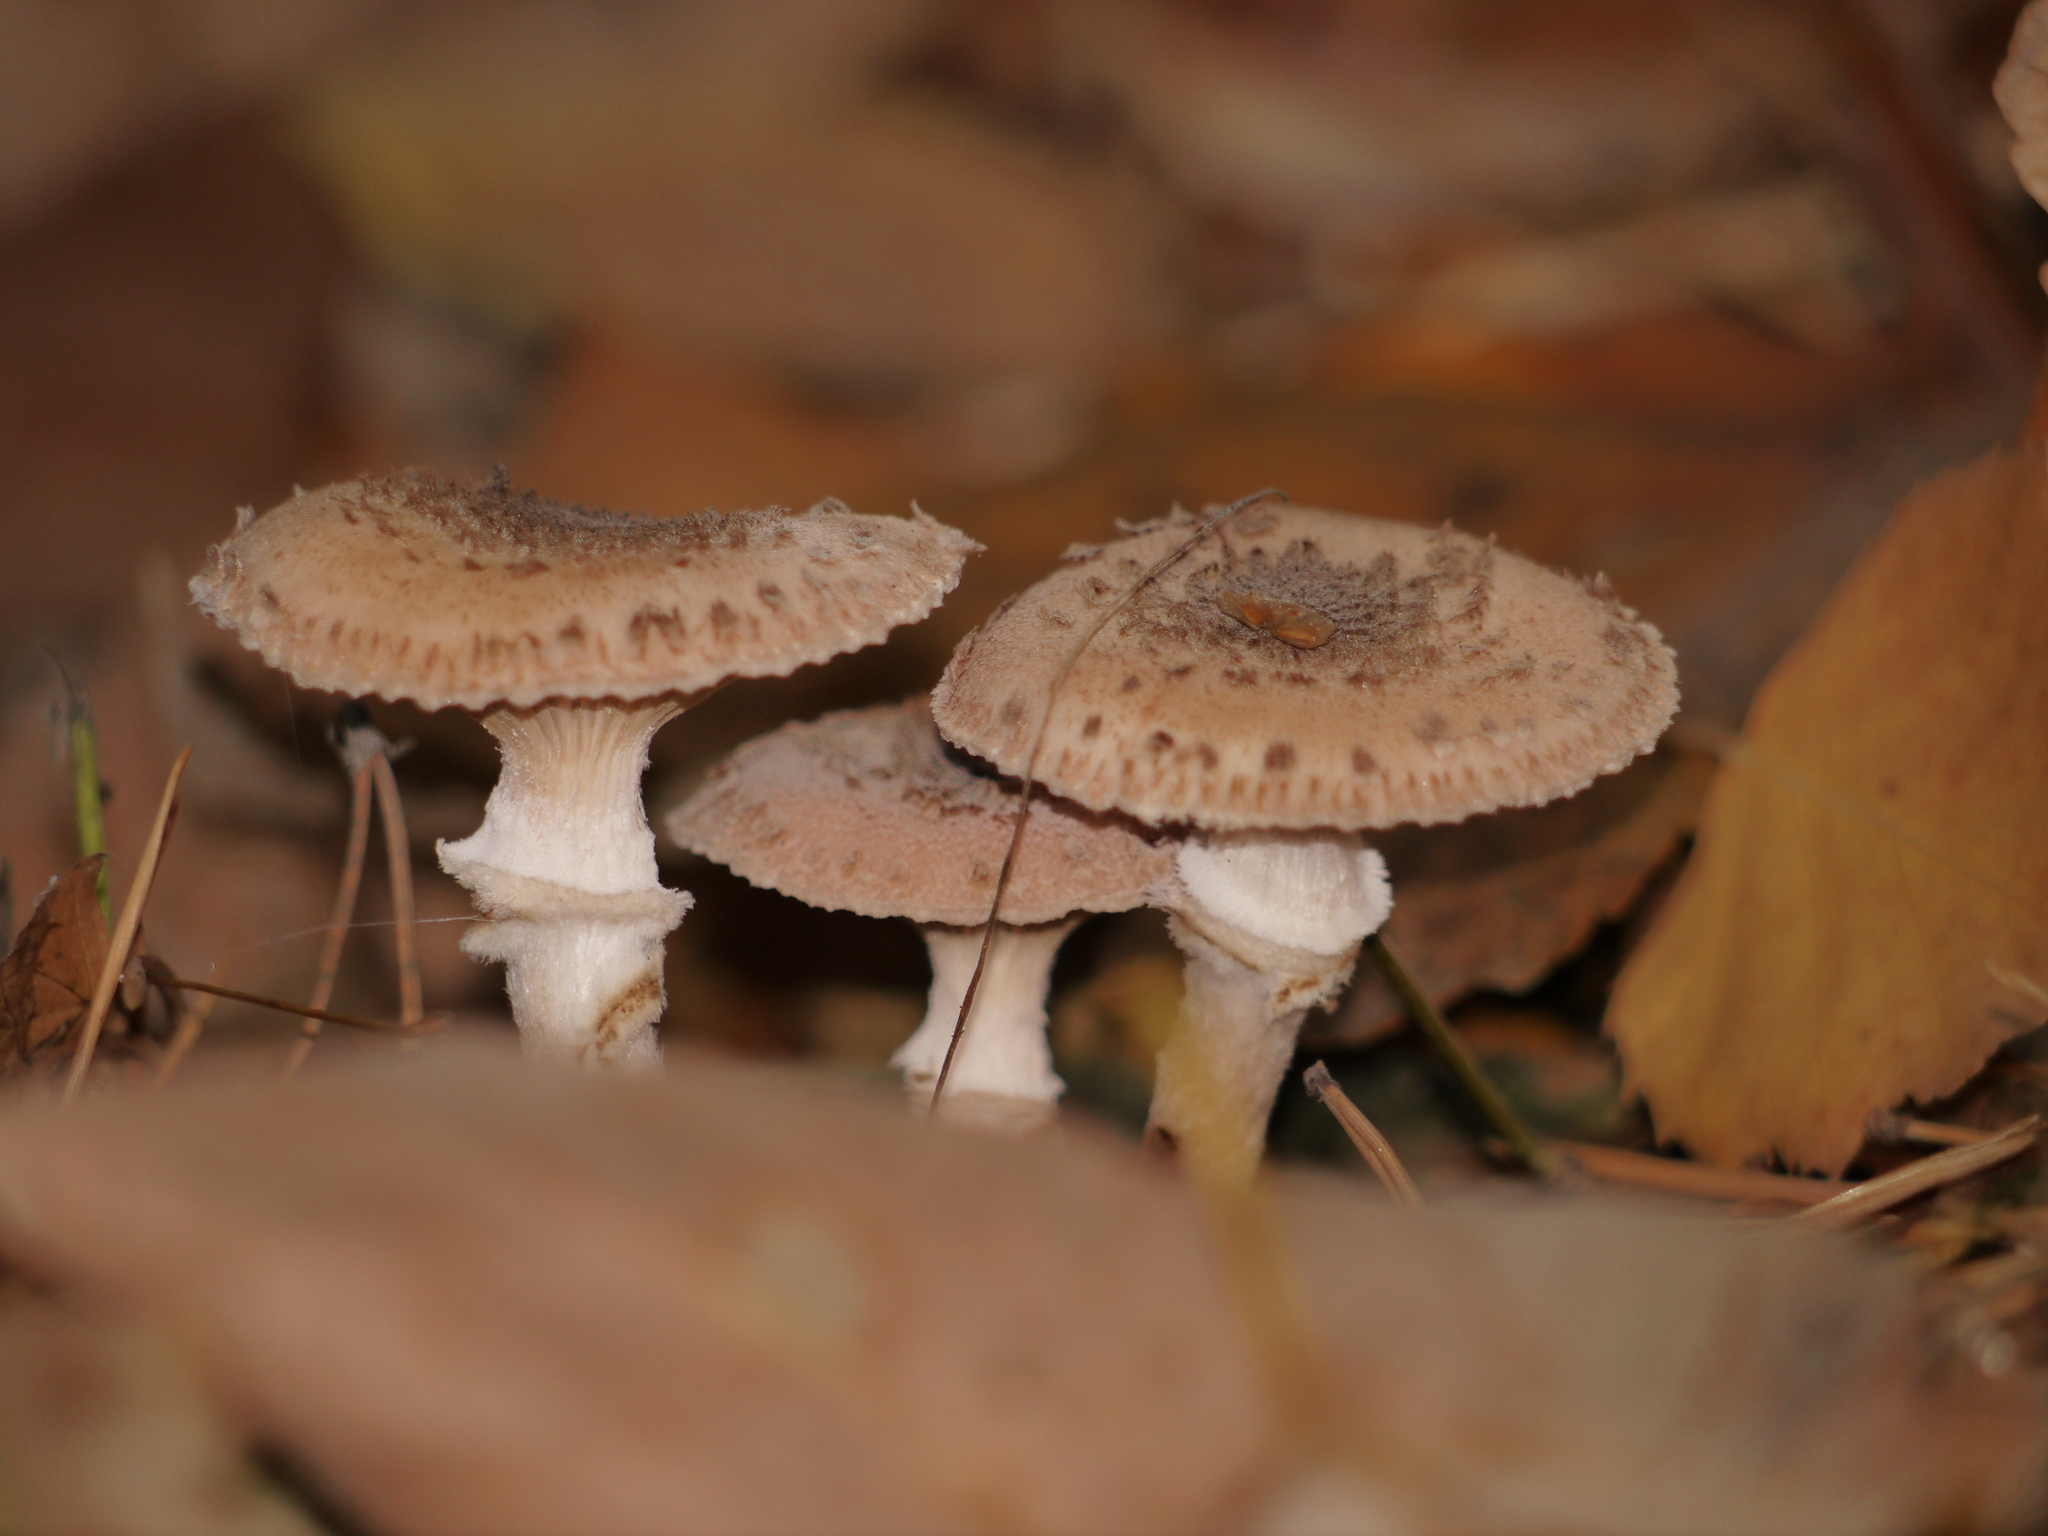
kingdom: Fungi
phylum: Basidiomycota
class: Agaricomycetes
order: Agaricales
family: Physalacriaceae
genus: Armillaria
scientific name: Armillaria mellea
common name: Honey fungus
